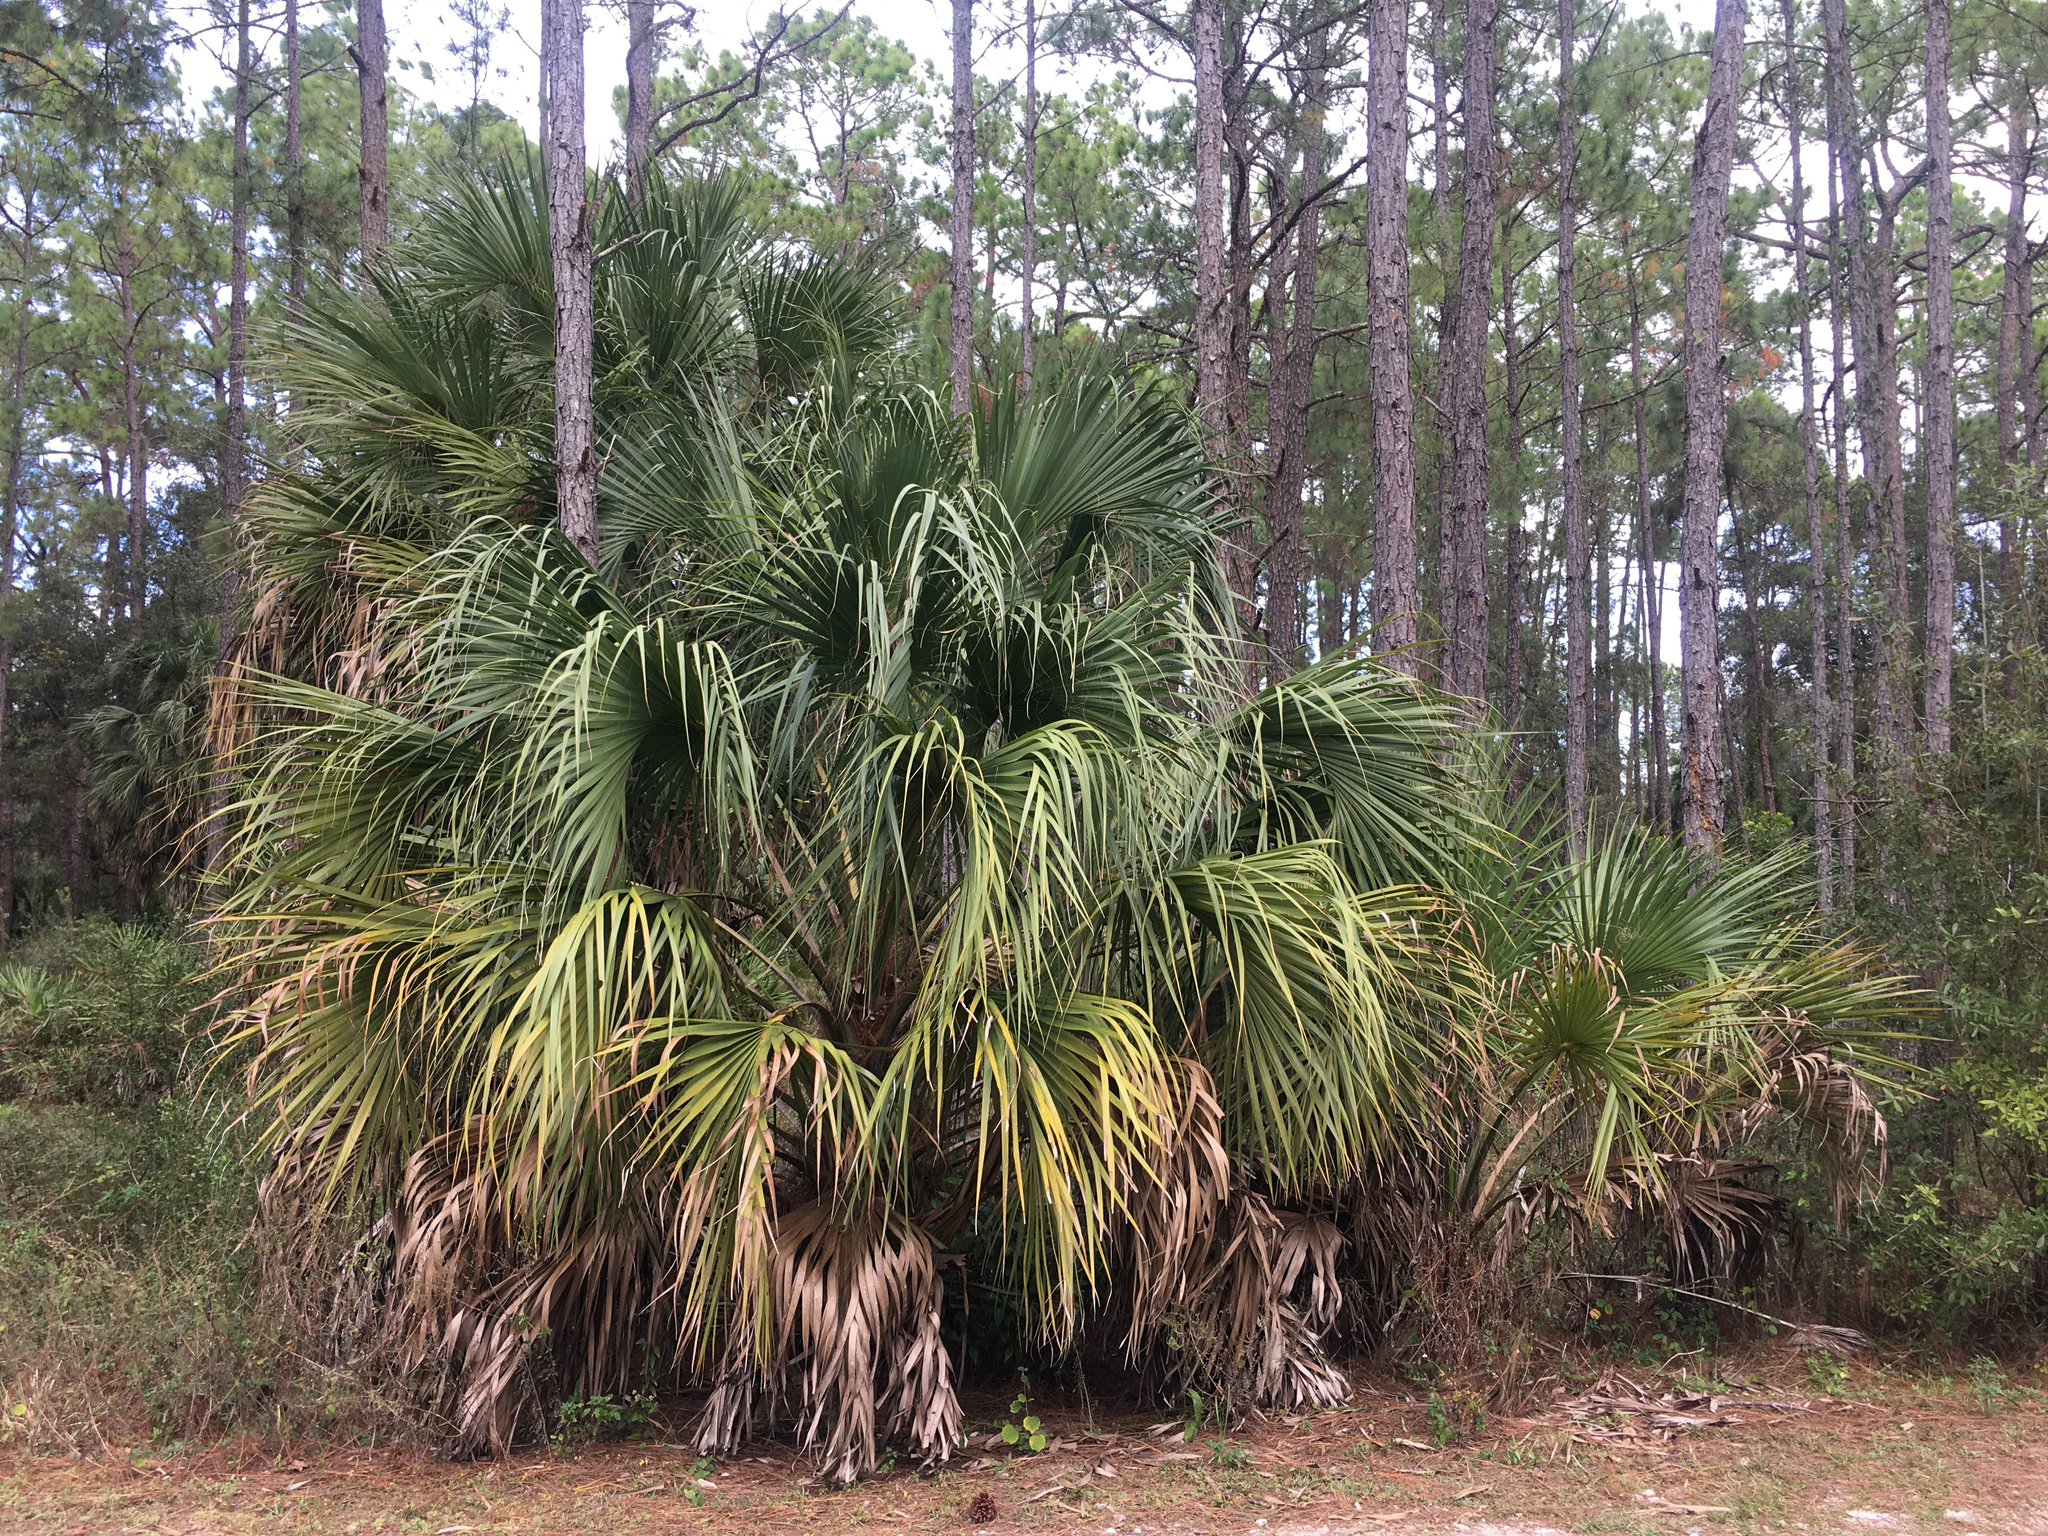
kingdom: Plantae
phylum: Tracheophyta
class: Liliopsida
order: Arecales
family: Arecaceae
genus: Sabal
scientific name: Sabal palmetto
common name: Blue palmetto
